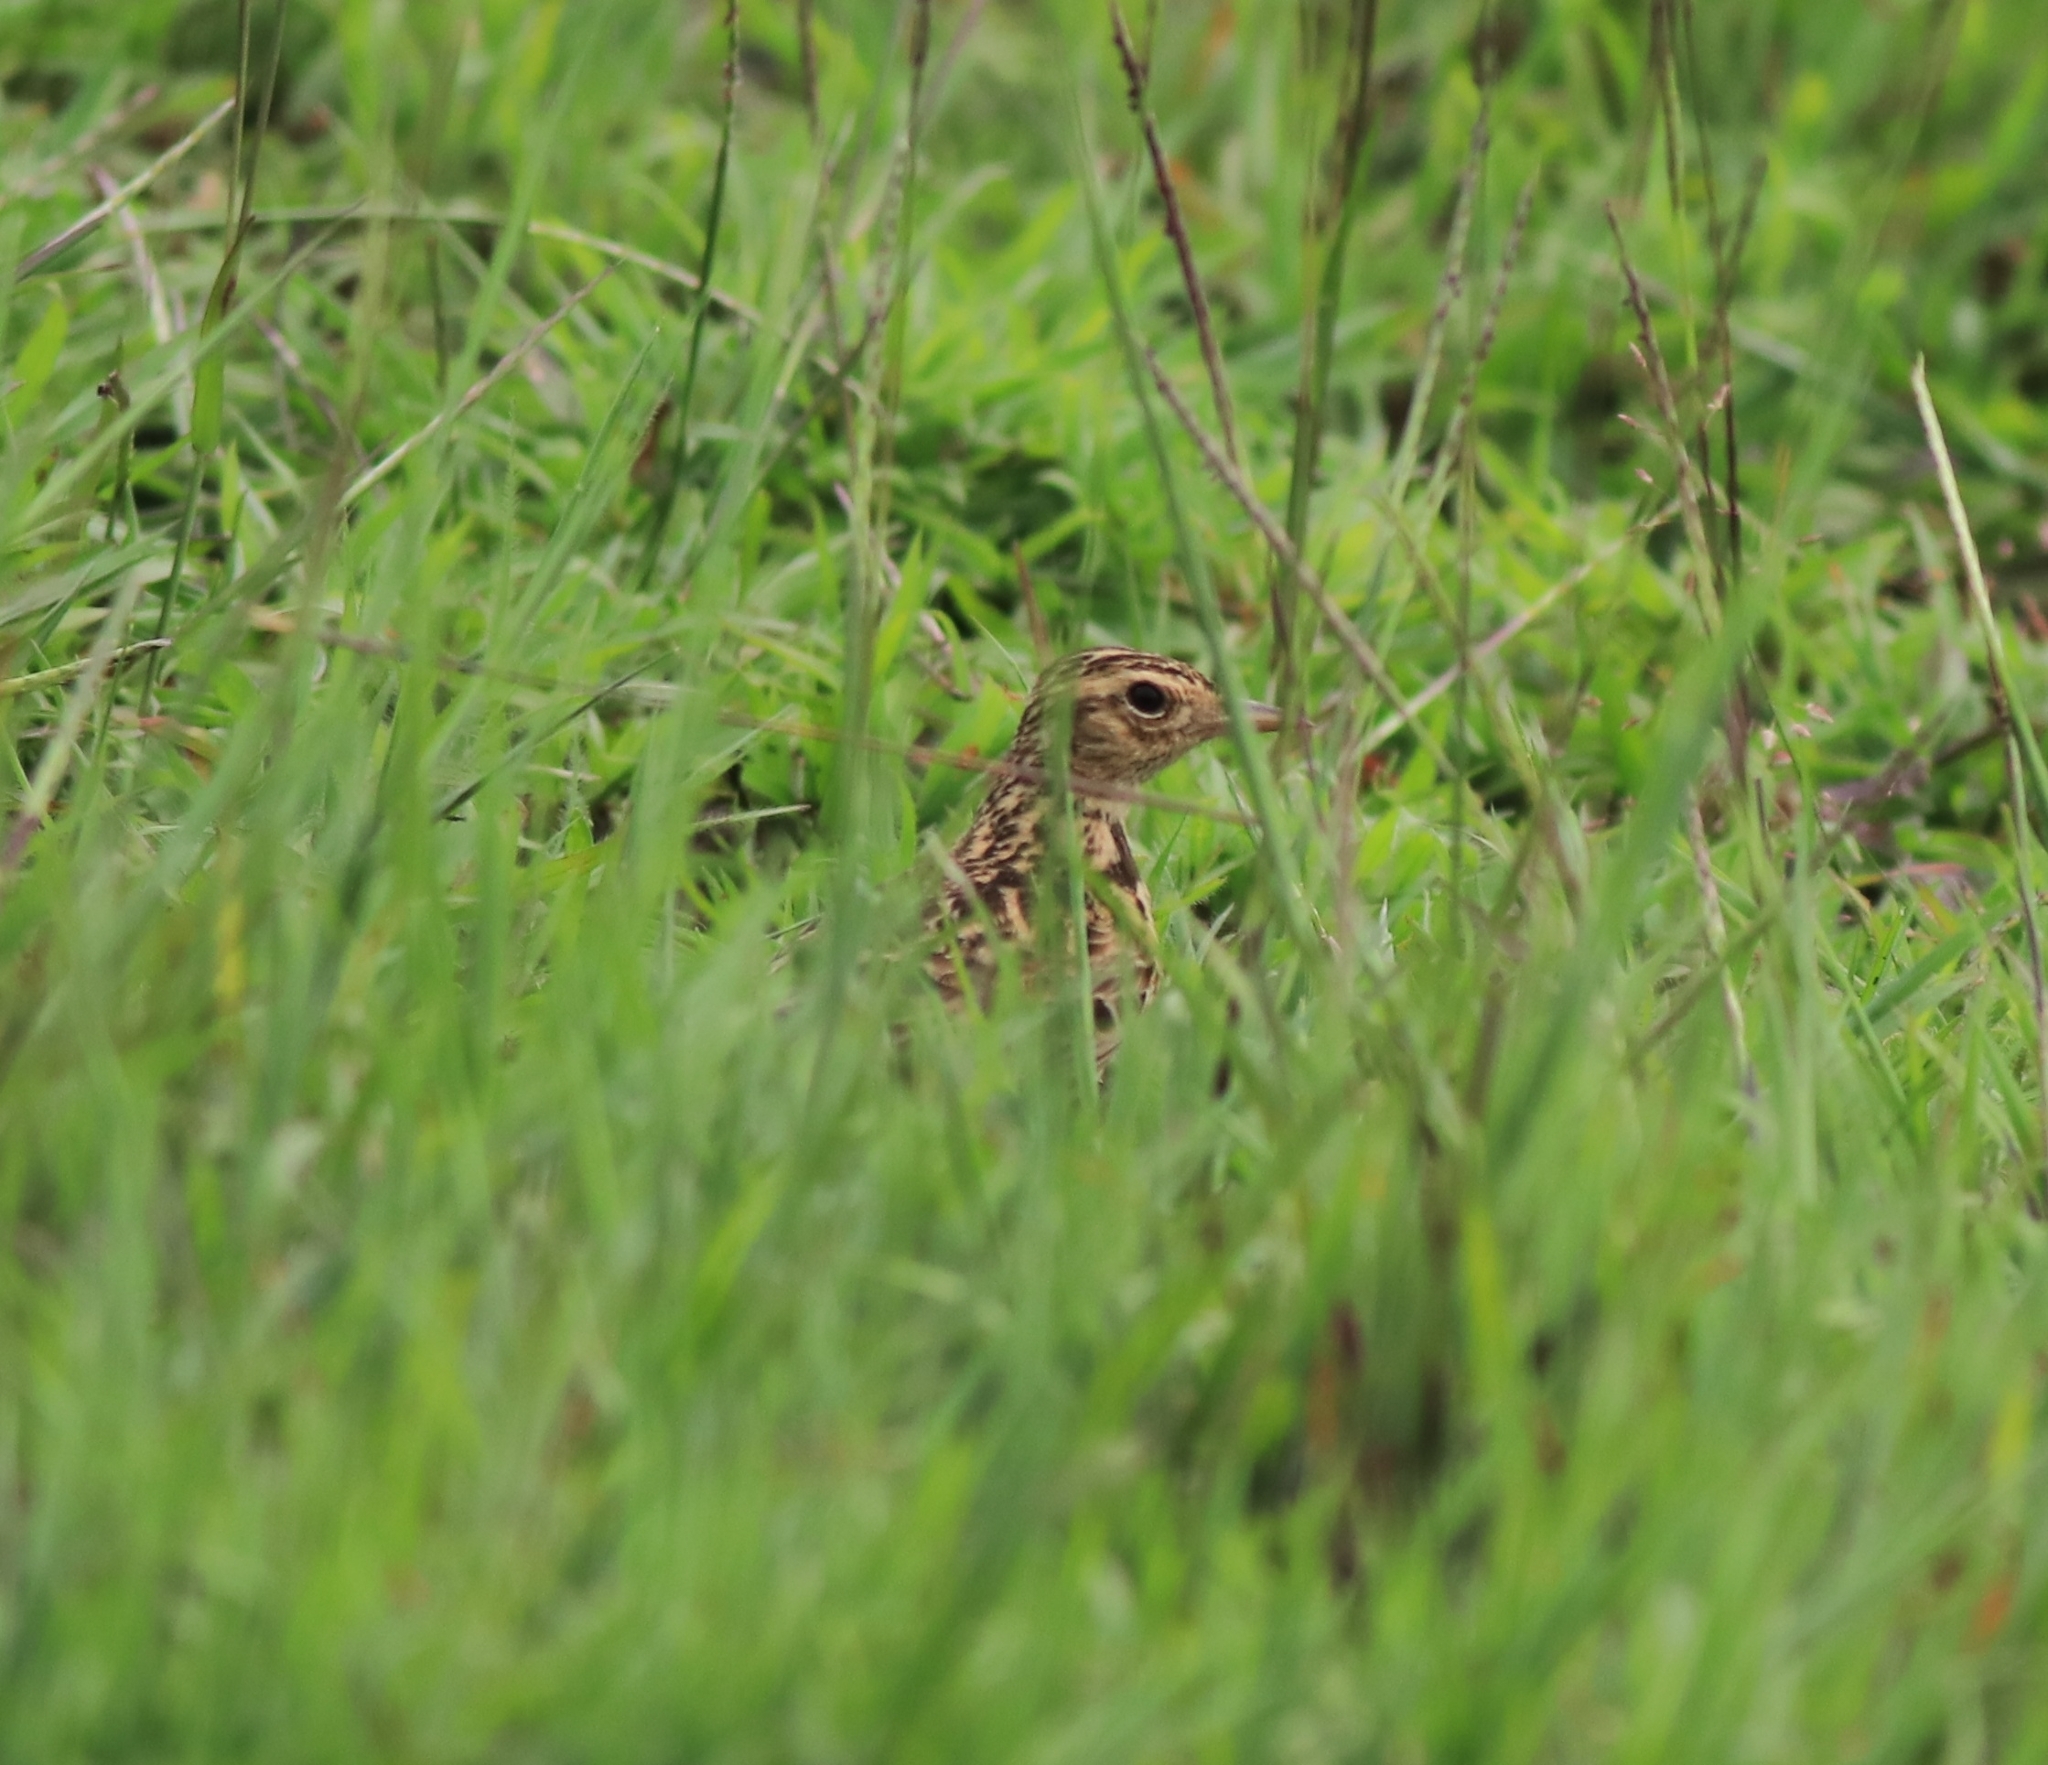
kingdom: Animalia
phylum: Chordata
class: Aves
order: Passeriformes
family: Alaudidae
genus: Alauda
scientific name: Alauda gulgula
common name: Oriental skylark
